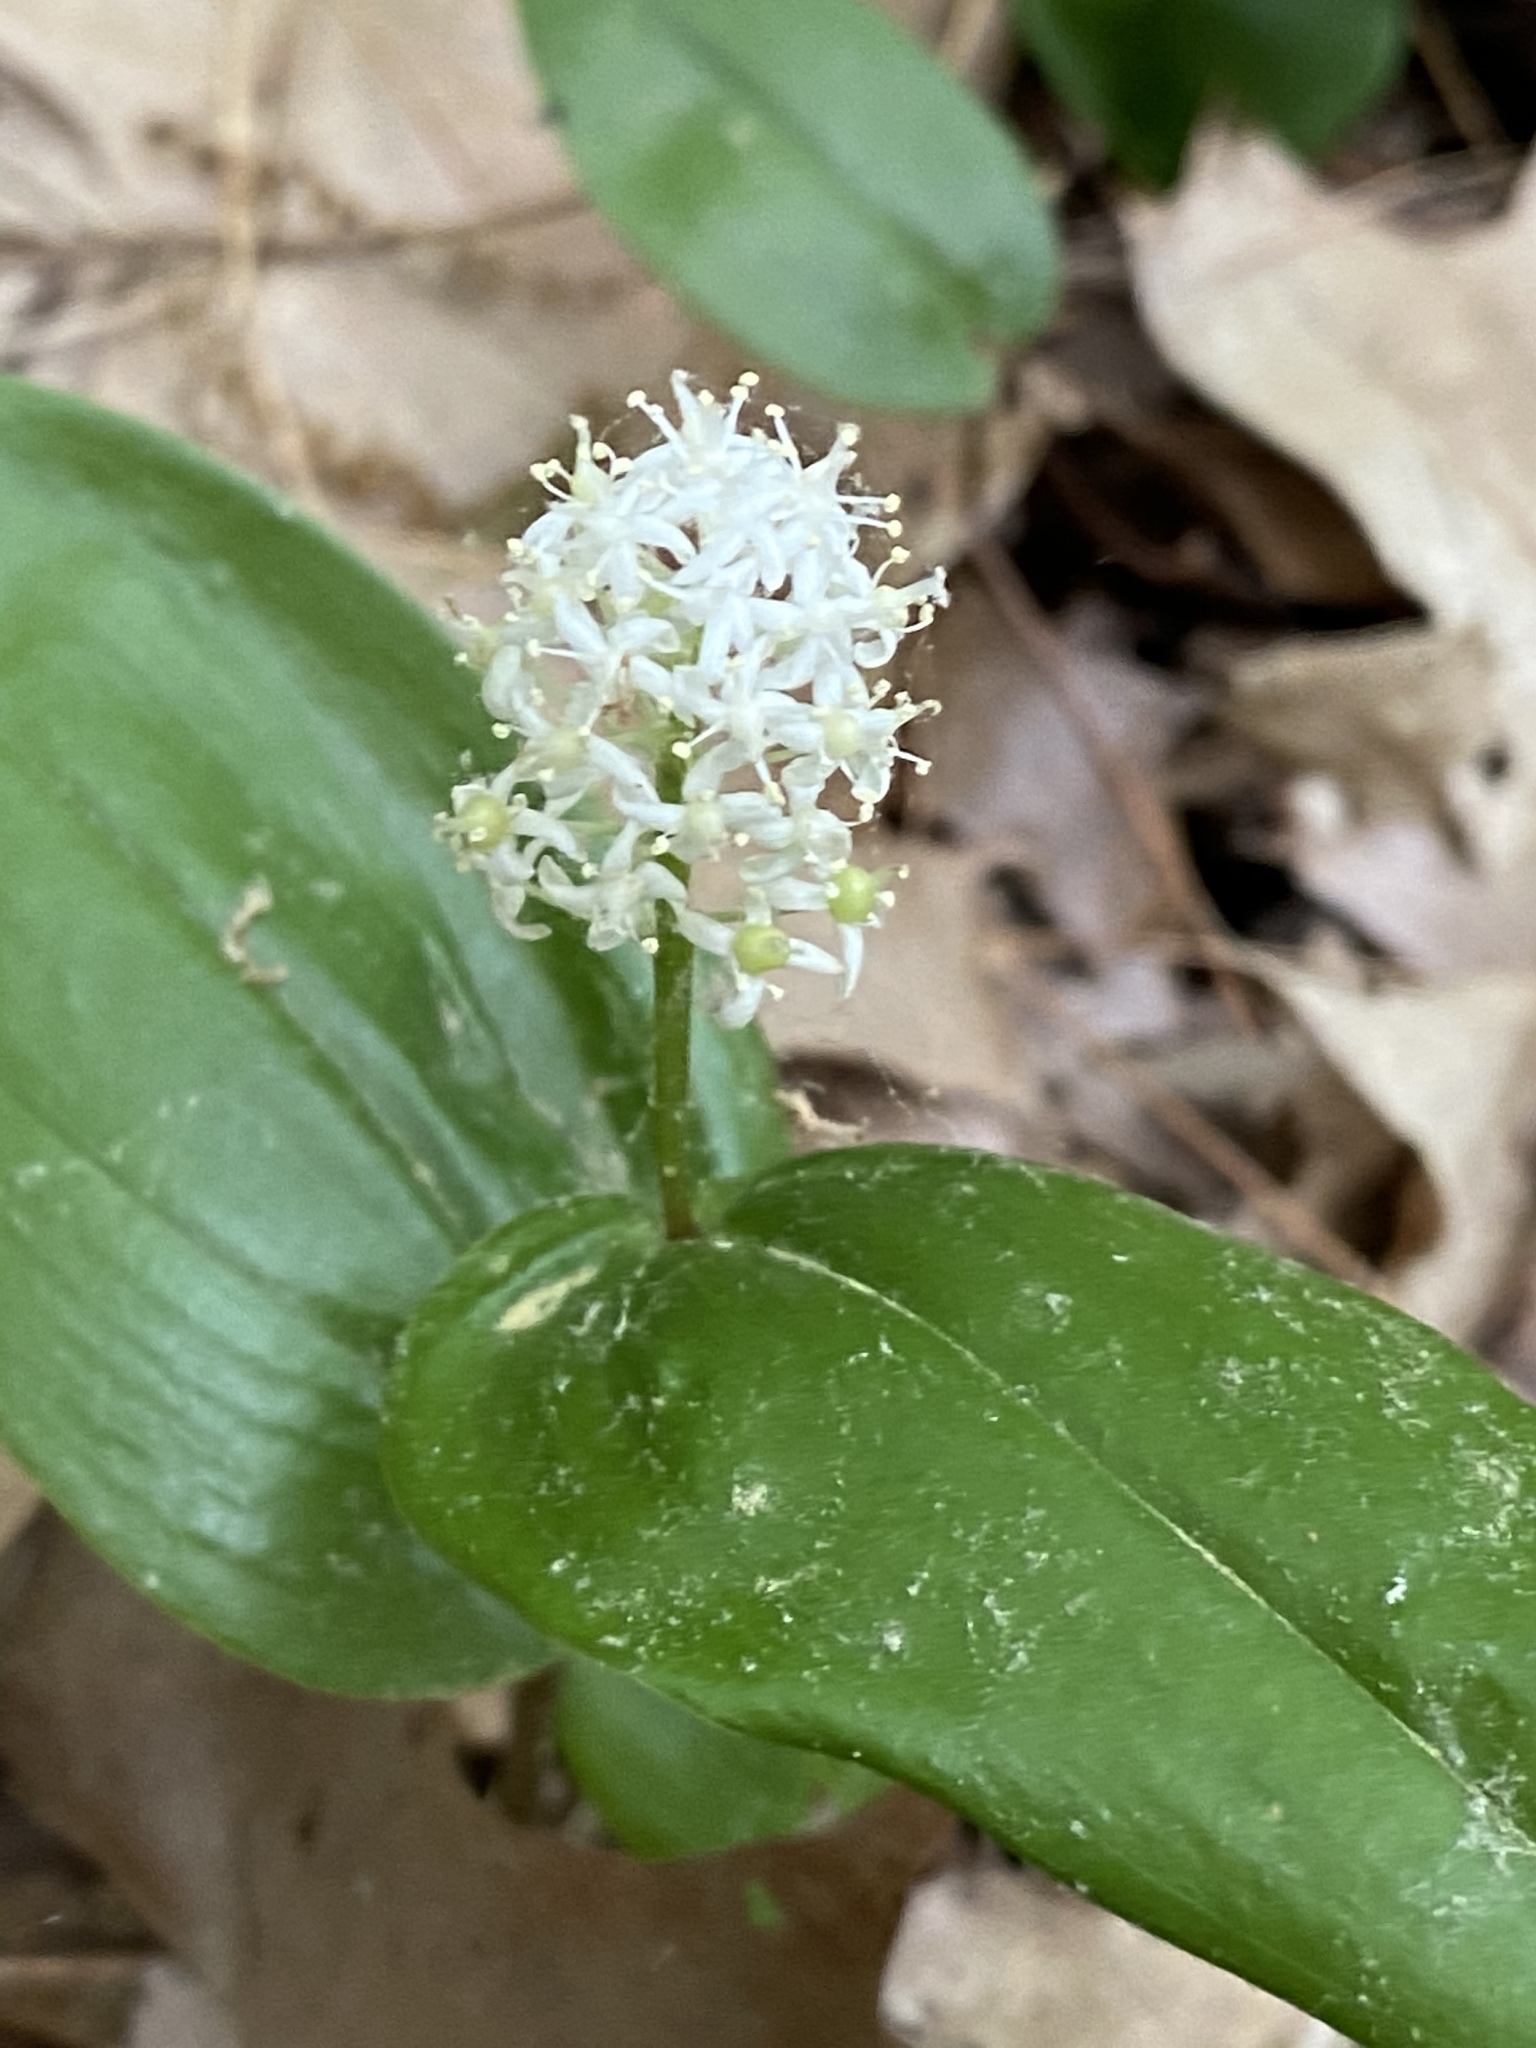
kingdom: Plantae
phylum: Tracheophyta
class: Liliopsida
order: Asparagales
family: Asparagaceae
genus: Maianthemum
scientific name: Maianthemum canadense
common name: False lily-of-the-valley
